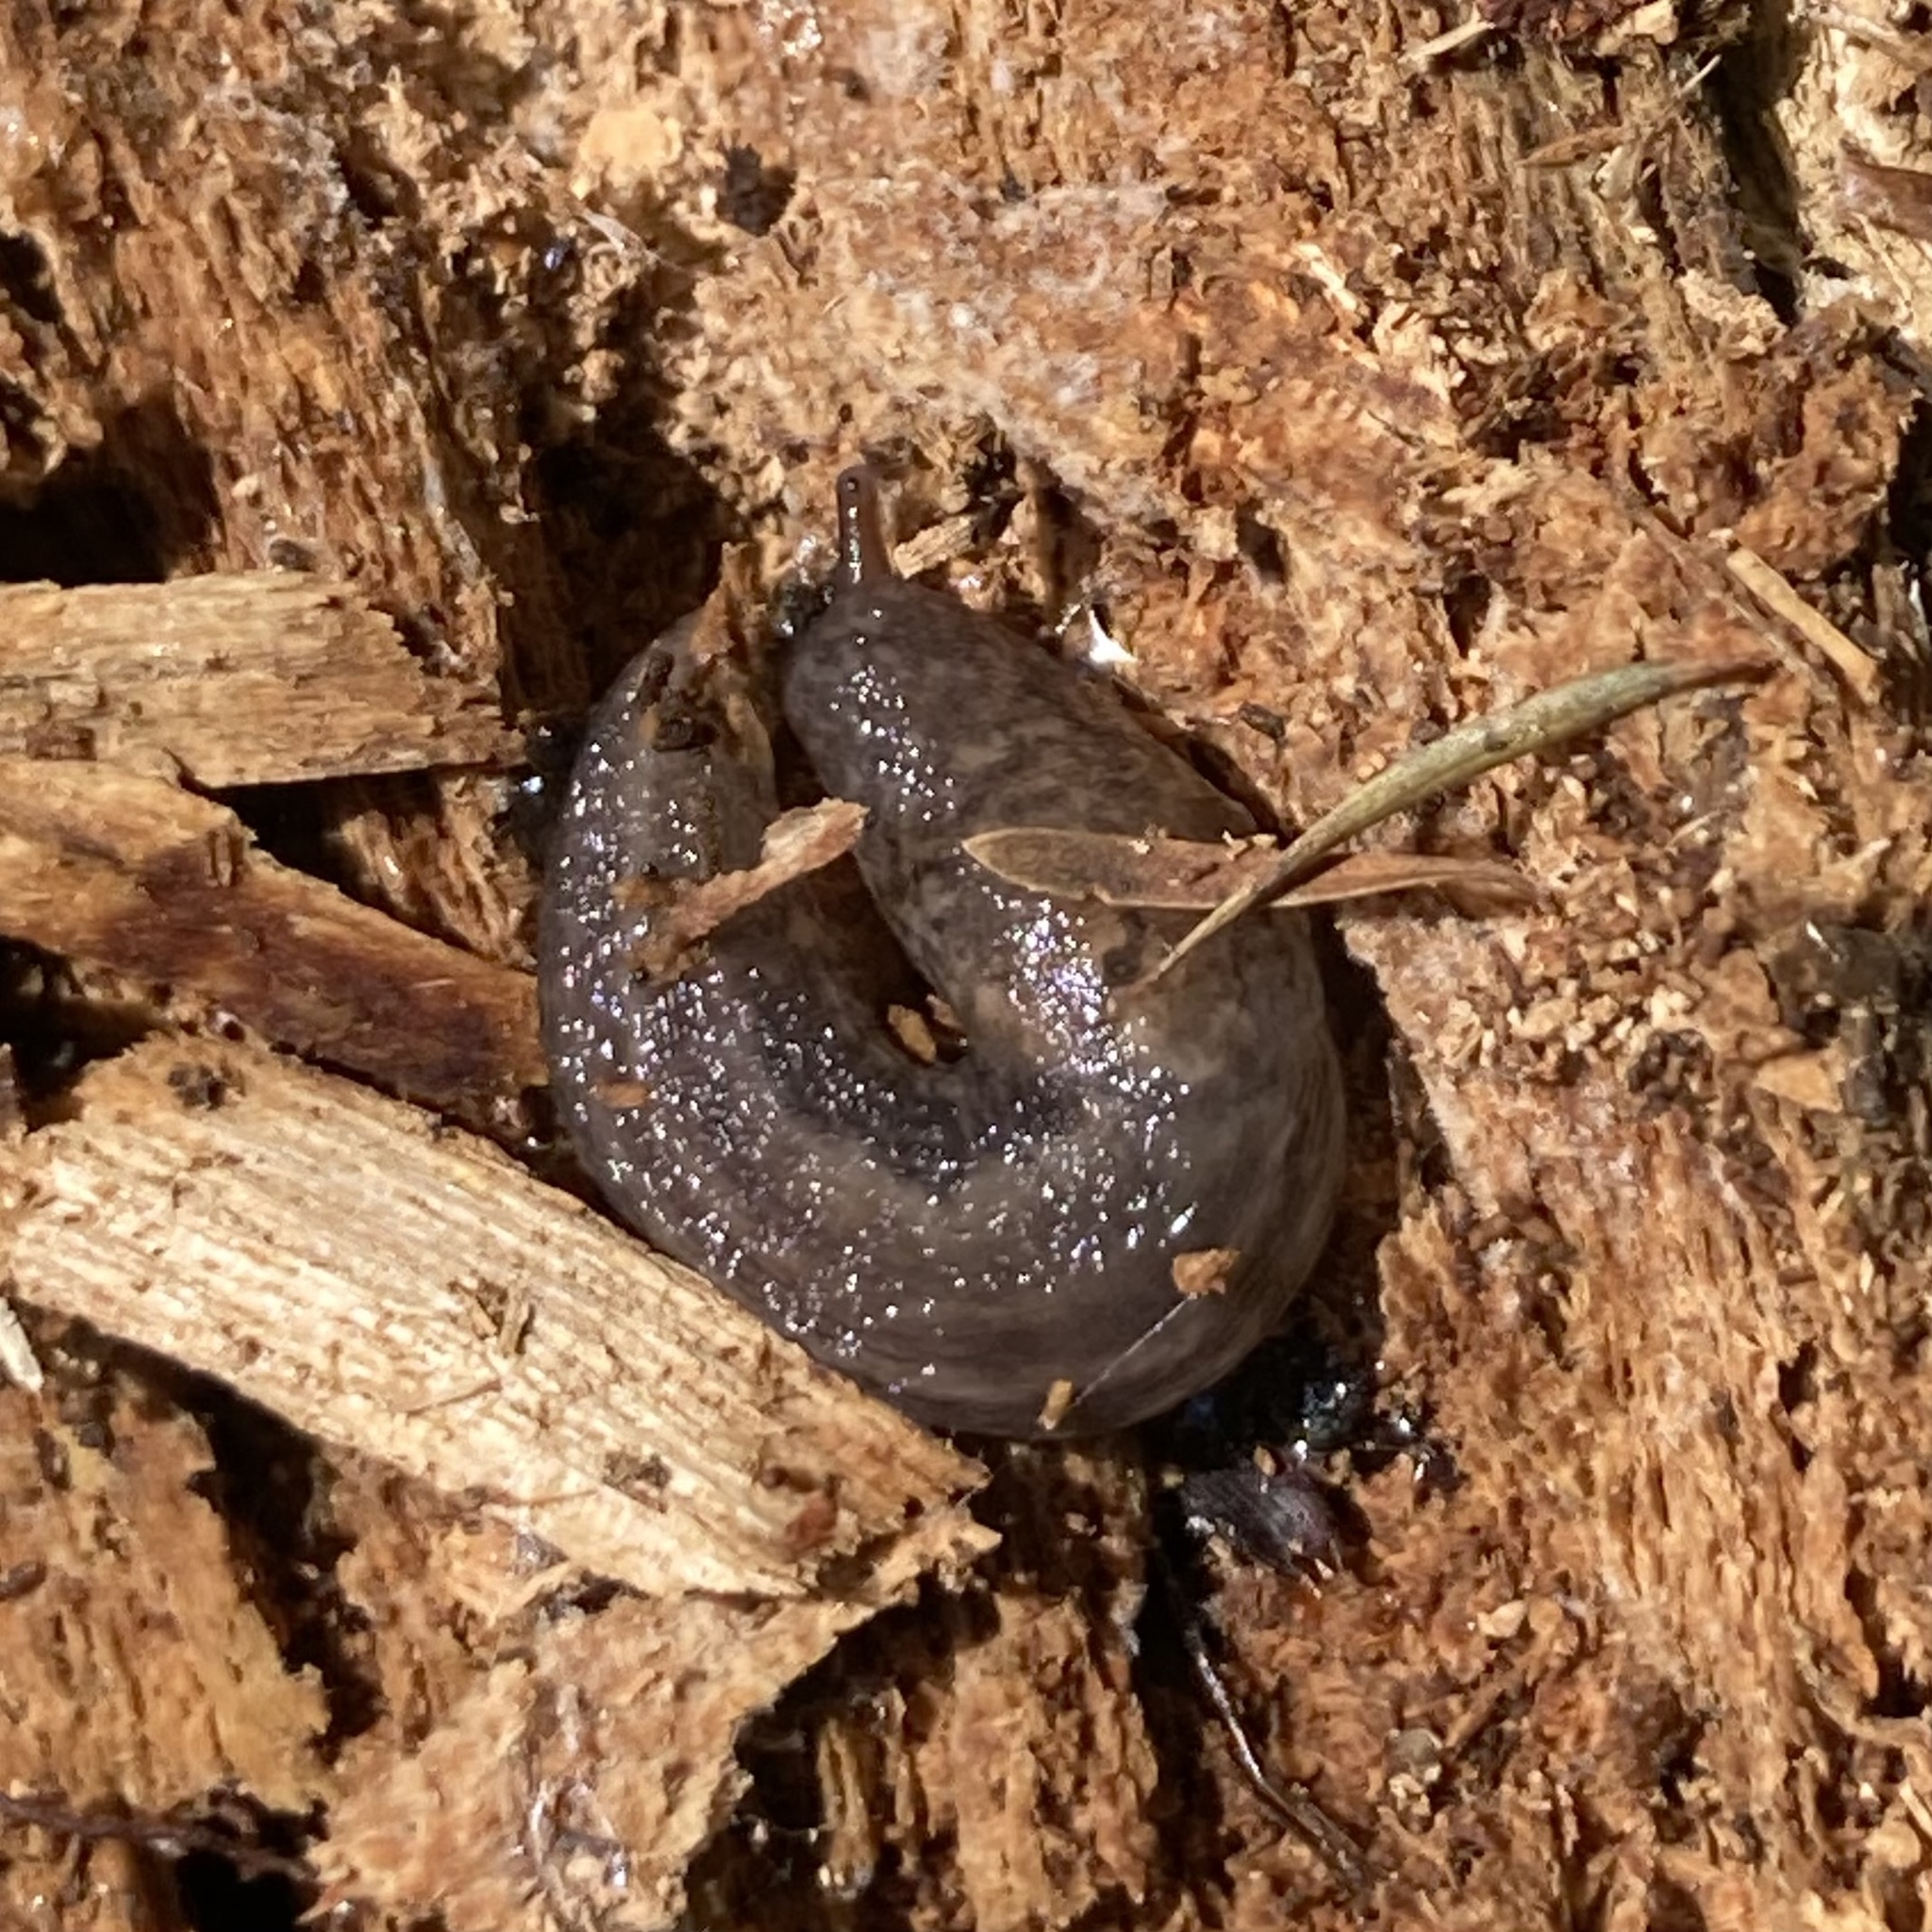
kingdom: Animalia
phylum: Mollusca
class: Gastropoda
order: Stylommatophora
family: Limacidae
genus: Limax
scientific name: Limax maximus
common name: Great grey slug
